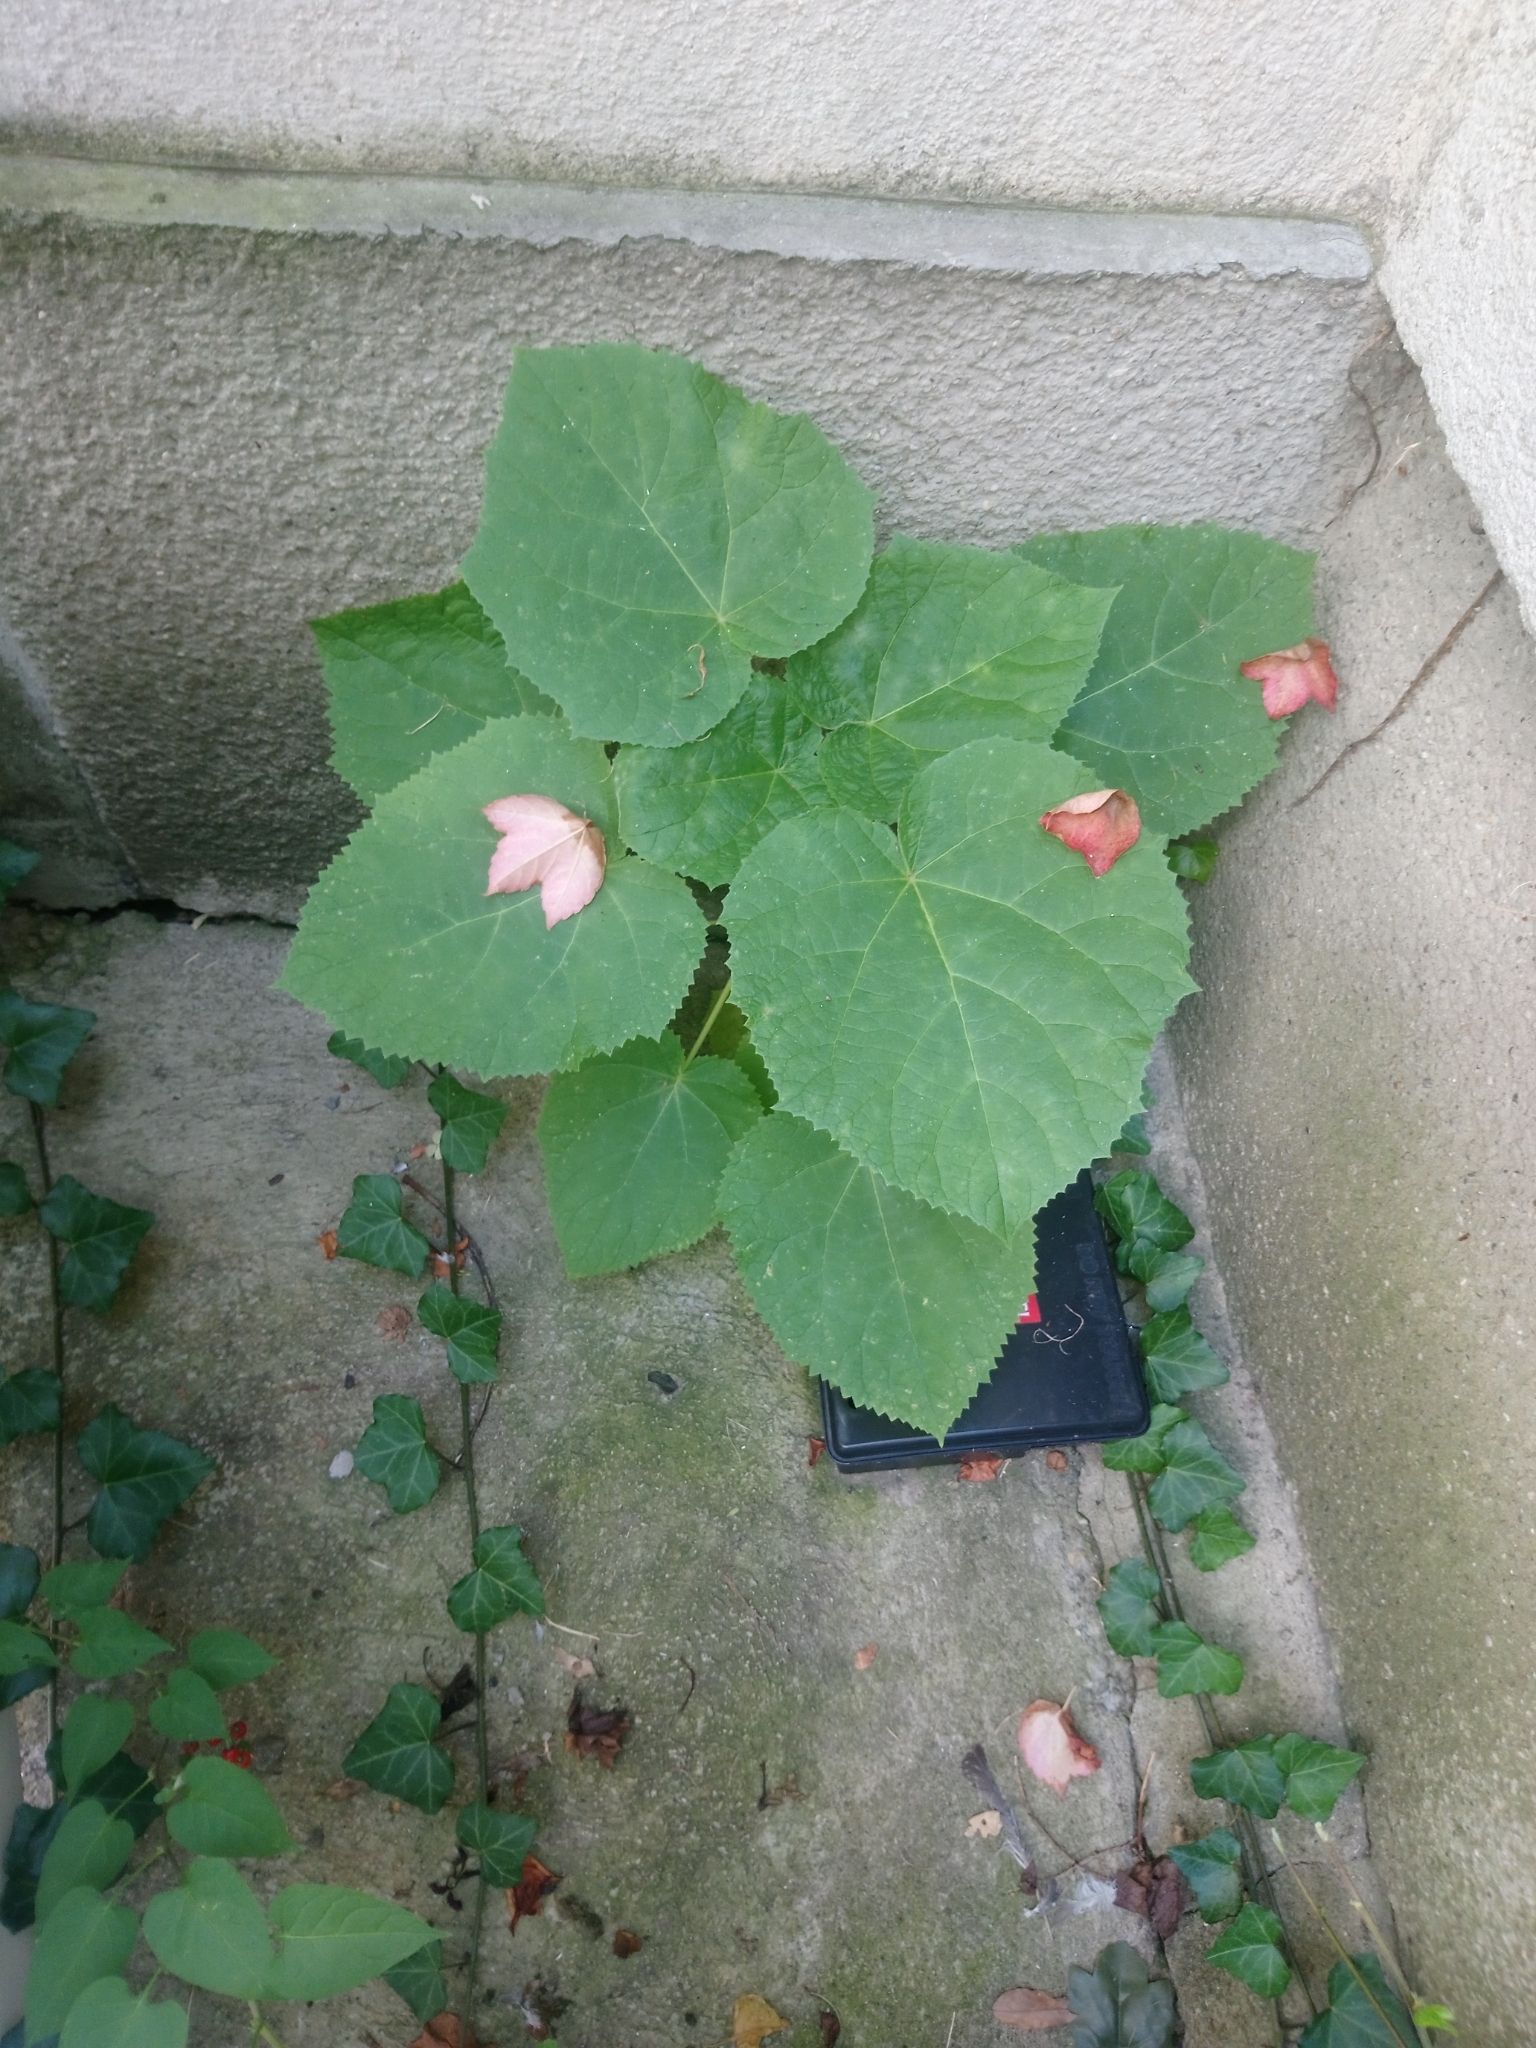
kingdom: Plantae
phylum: Tracheophyta
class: Magnoliopsida
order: Lamiales
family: Paulowniaceae
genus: Paulownia
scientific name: Paulownia tomentosa
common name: Foxglove-tree
